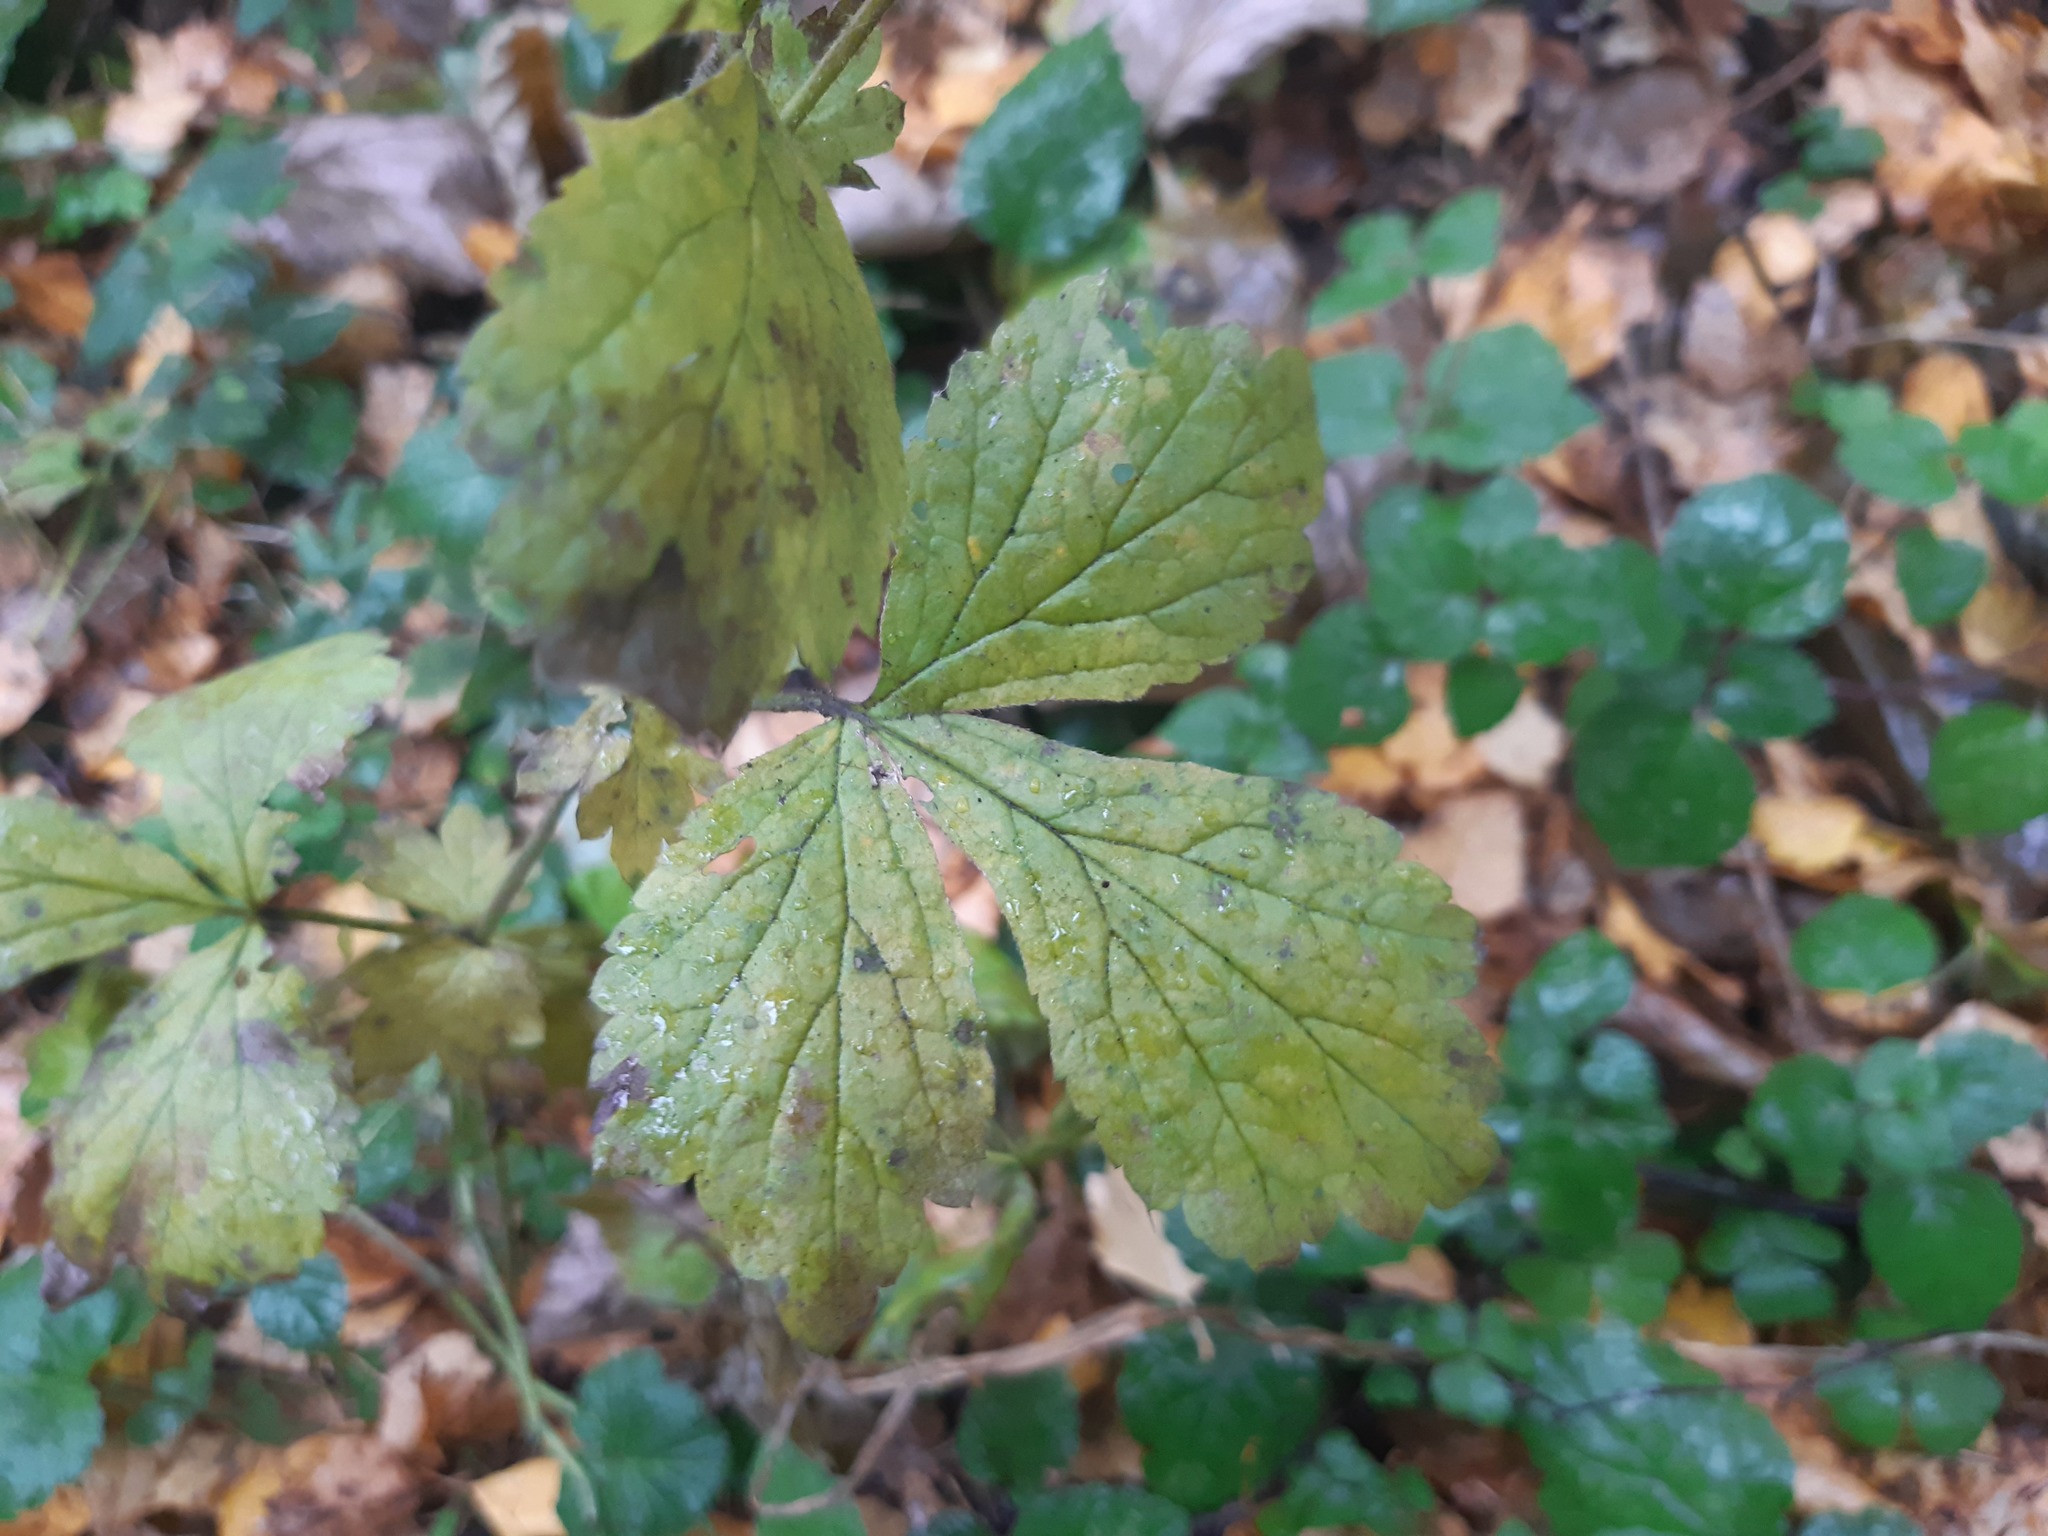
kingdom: Plantae
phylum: Tracheophyta
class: Magnoliopsida
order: Rosales
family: Rosaceae
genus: Geum
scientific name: Geum urbanum
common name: Wood avens
